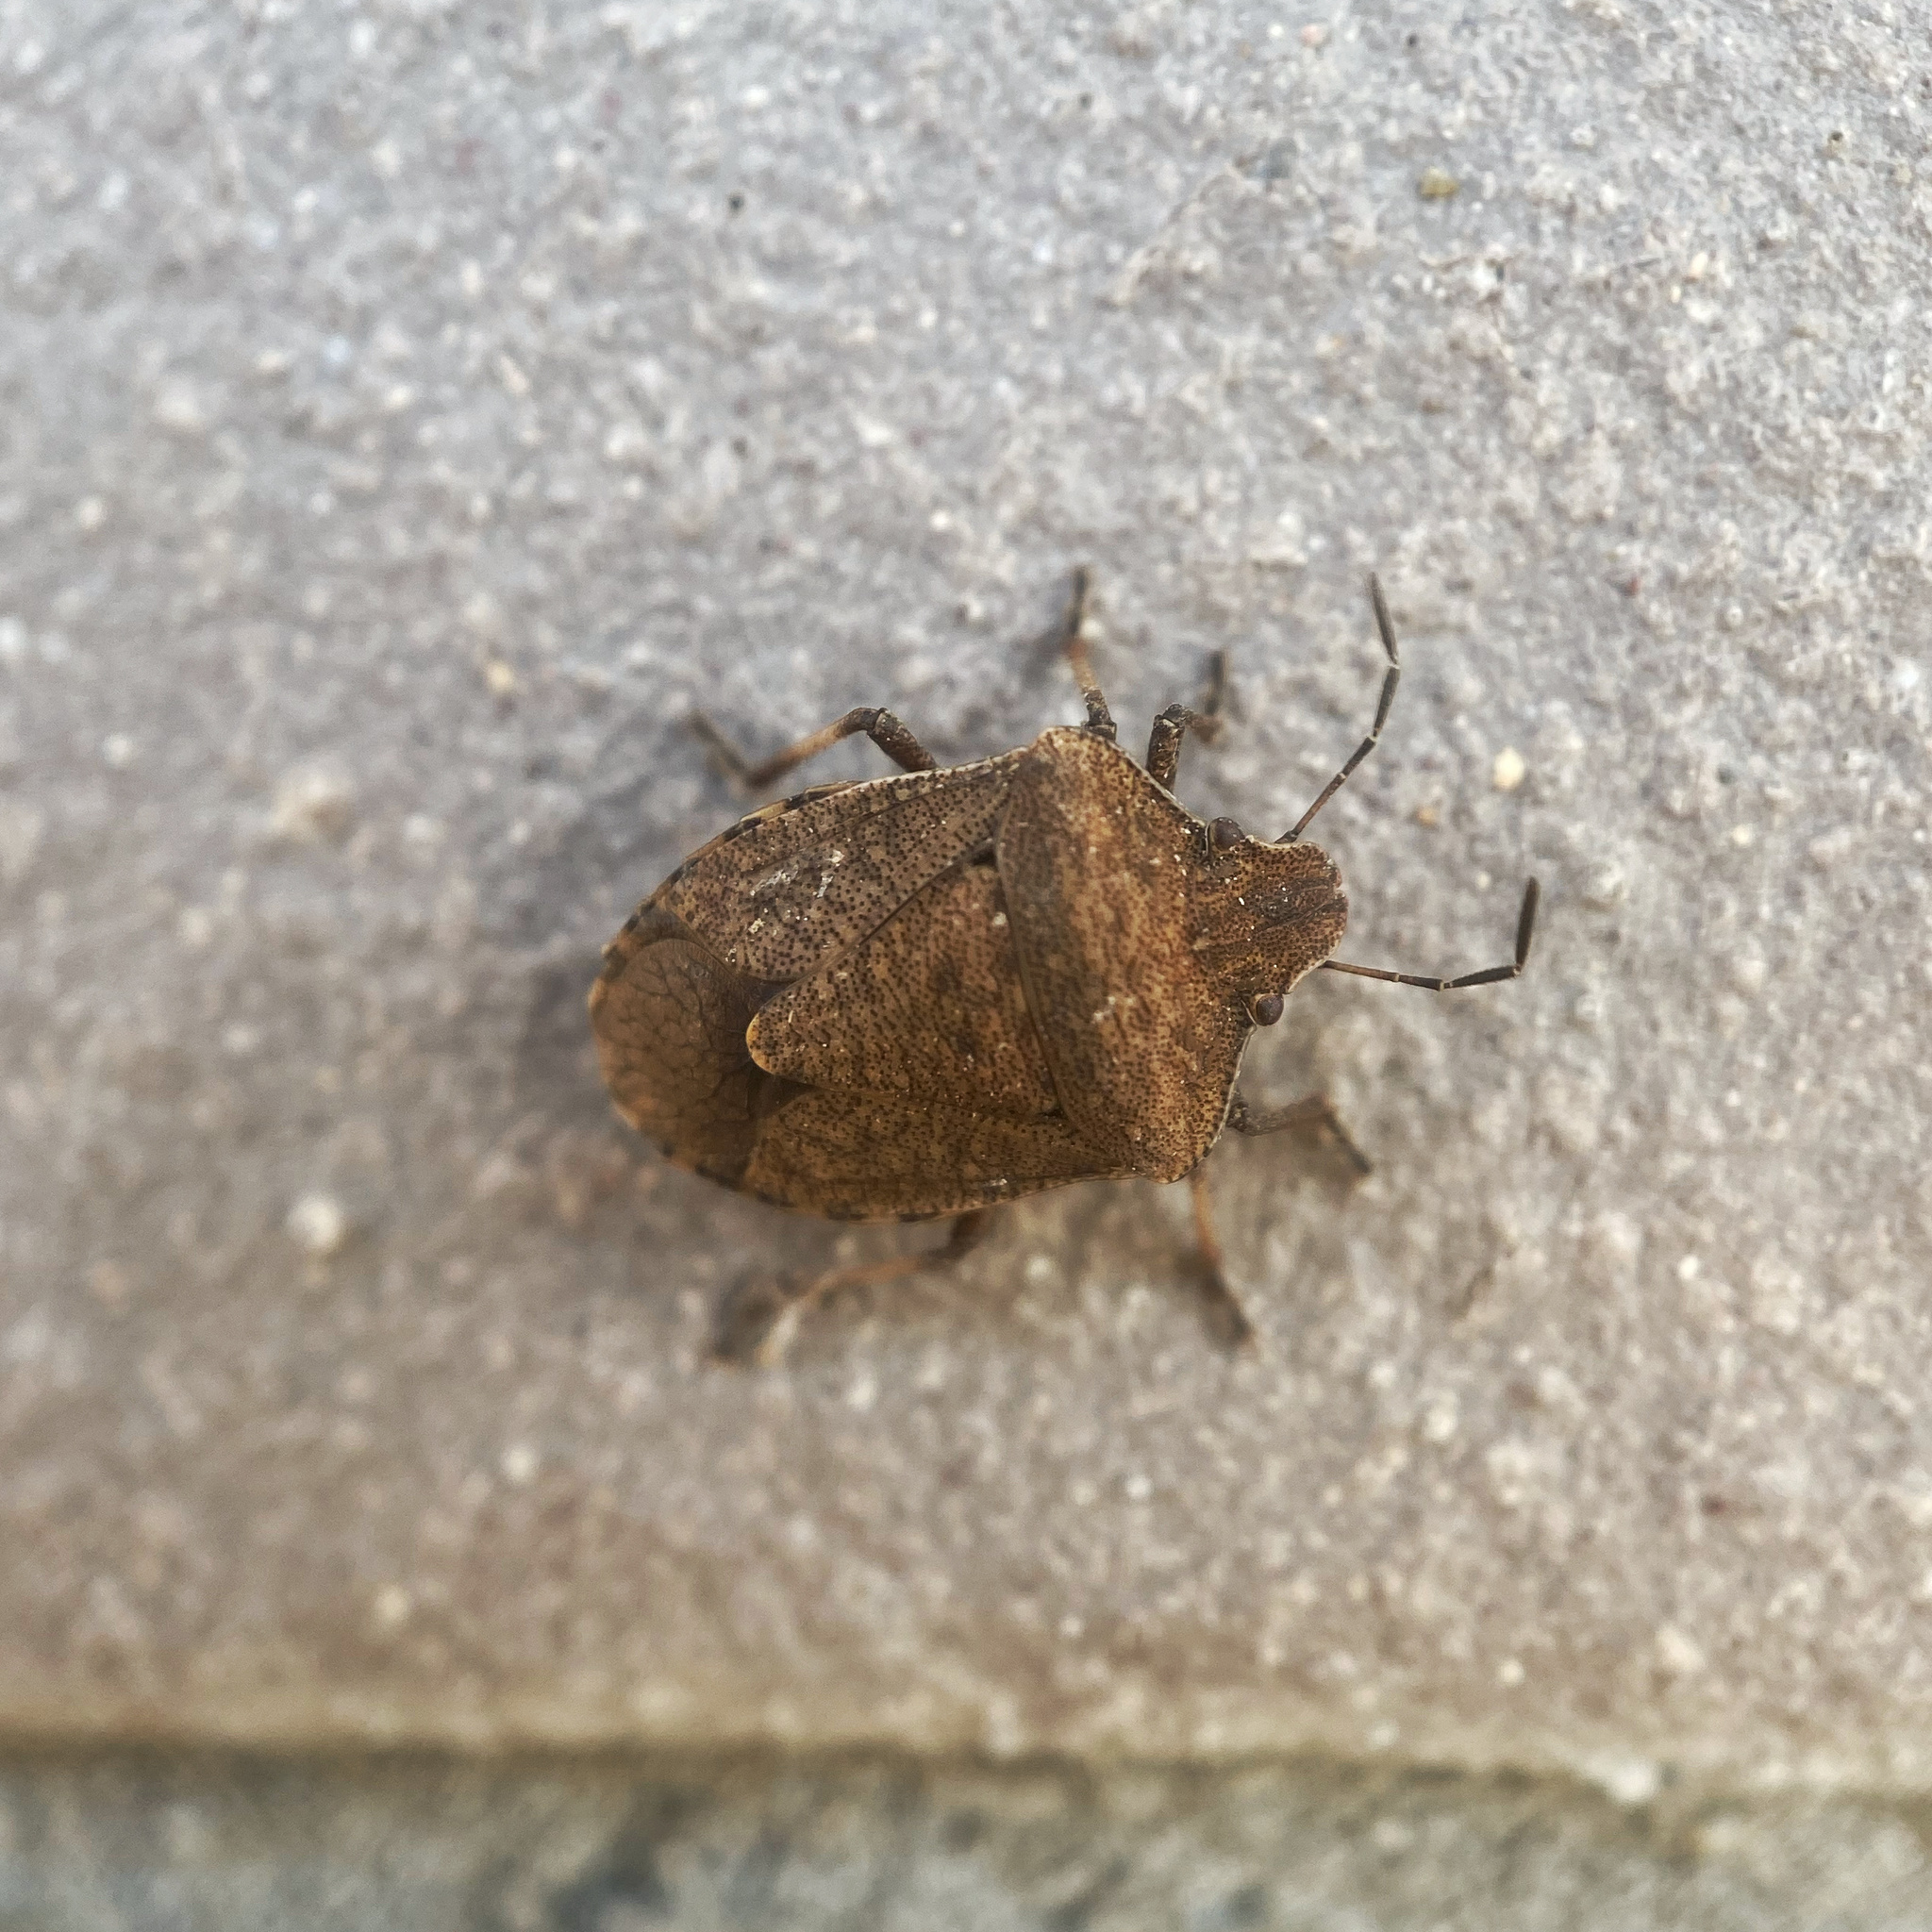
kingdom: Animalia
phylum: Arthropoda
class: Insecta
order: Hemiptera
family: Pentatomidae
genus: Dictyotus
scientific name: Dictyotus caenosus
